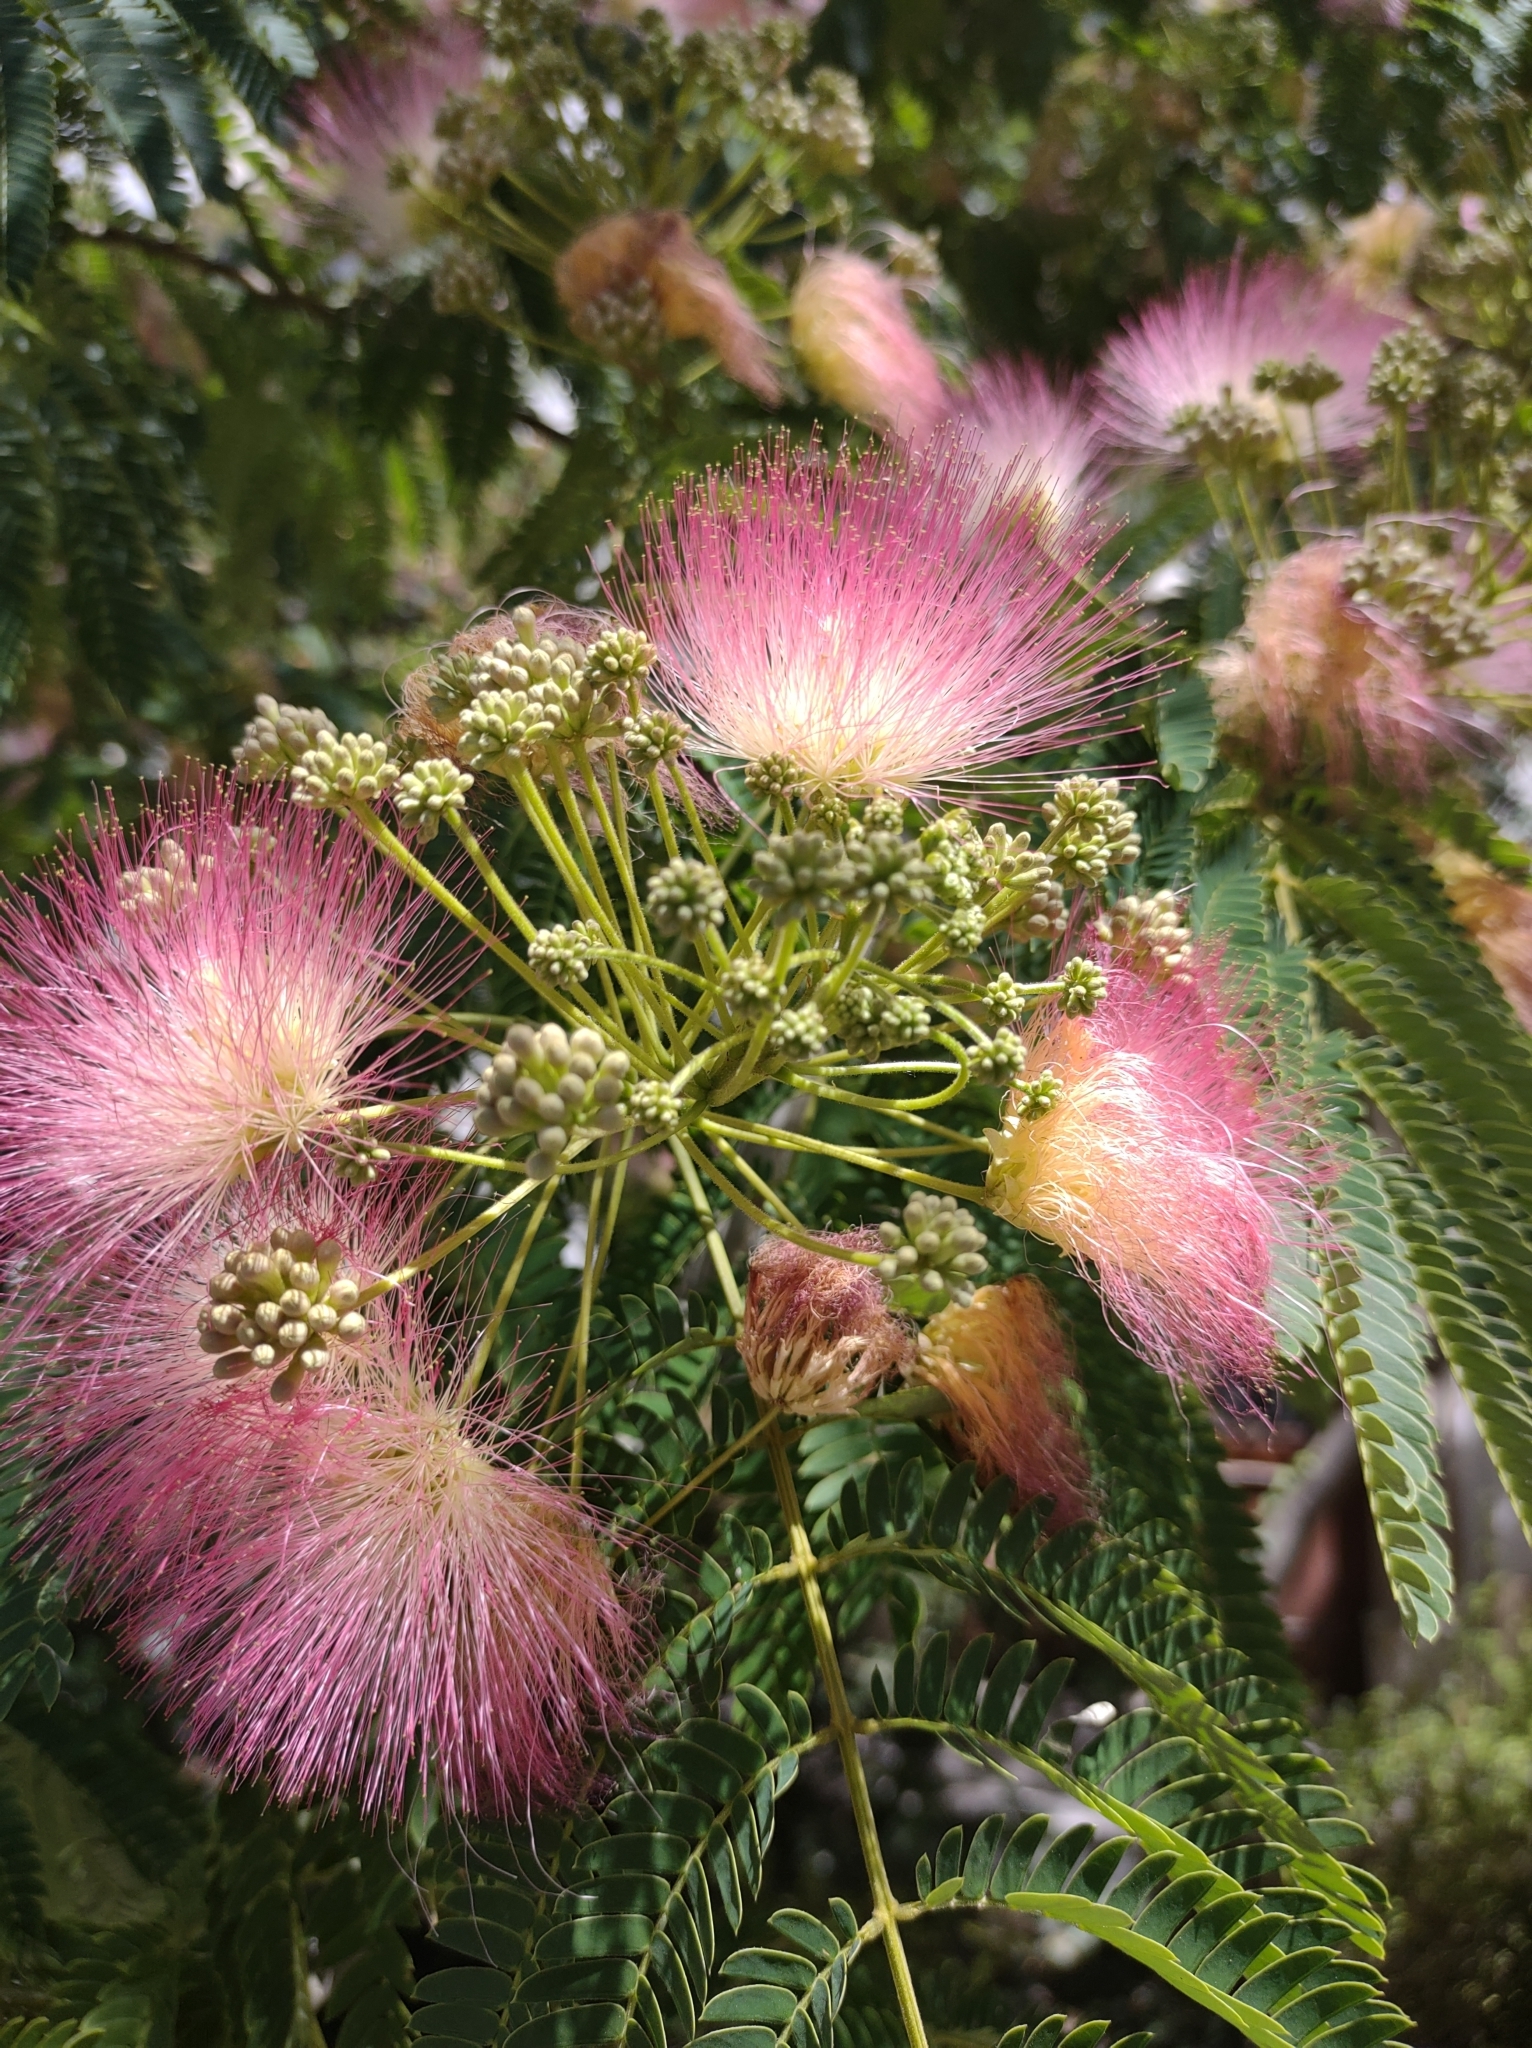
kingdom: Plantae
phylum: Tracheophyta
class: Magnoliopsida
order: Fabales
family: Fabaceae
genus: Albizia
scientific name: Albizia julibrissin
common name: Silktree
